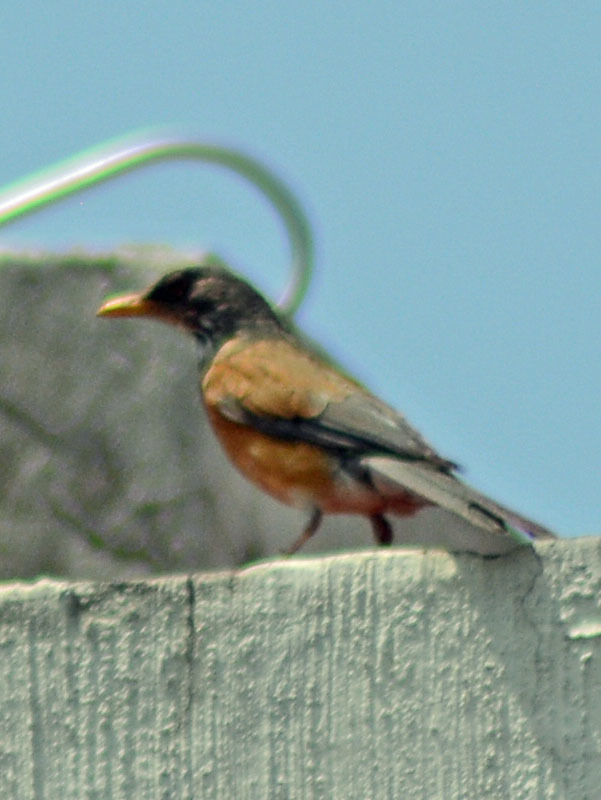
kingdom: Animalia
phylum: Chordata
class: Aves
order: Passeriformes
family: Turdidae
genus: Turdus
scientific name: Turdus rufopalliatus
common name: Rufous-backed robin
